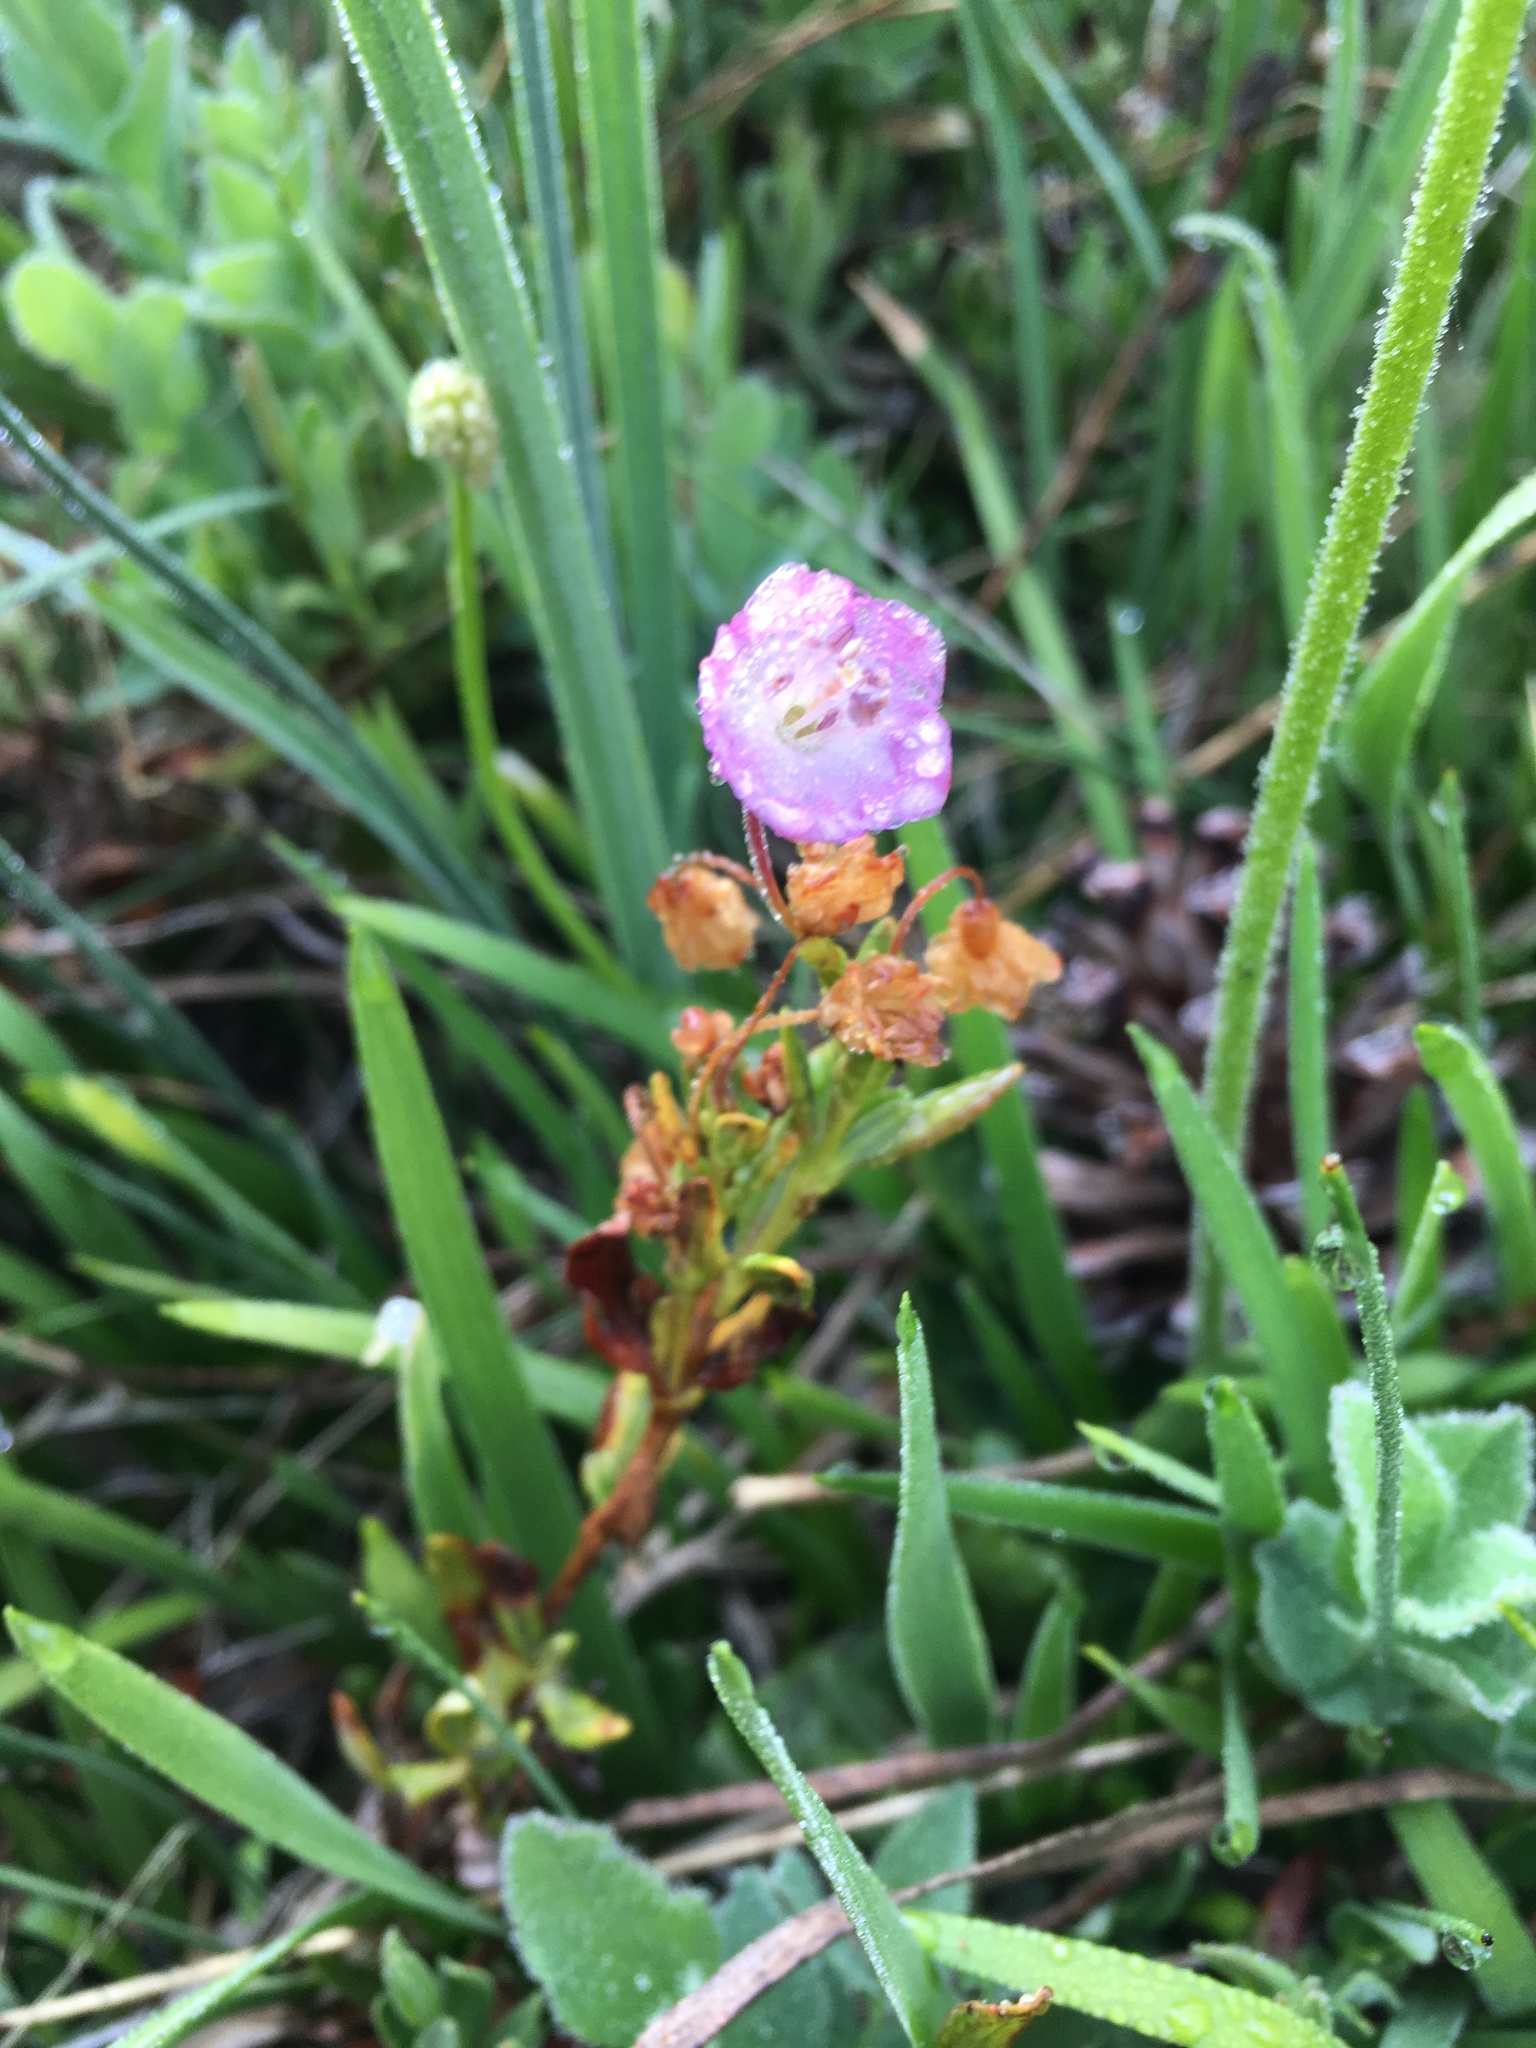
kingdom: Plantae
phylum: Tracheophyta
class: Magnoliopsida
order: Ericales
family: Ericaceae
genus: Kalmia
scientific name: Kalmia microphylla
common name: Alpine bog laurel
